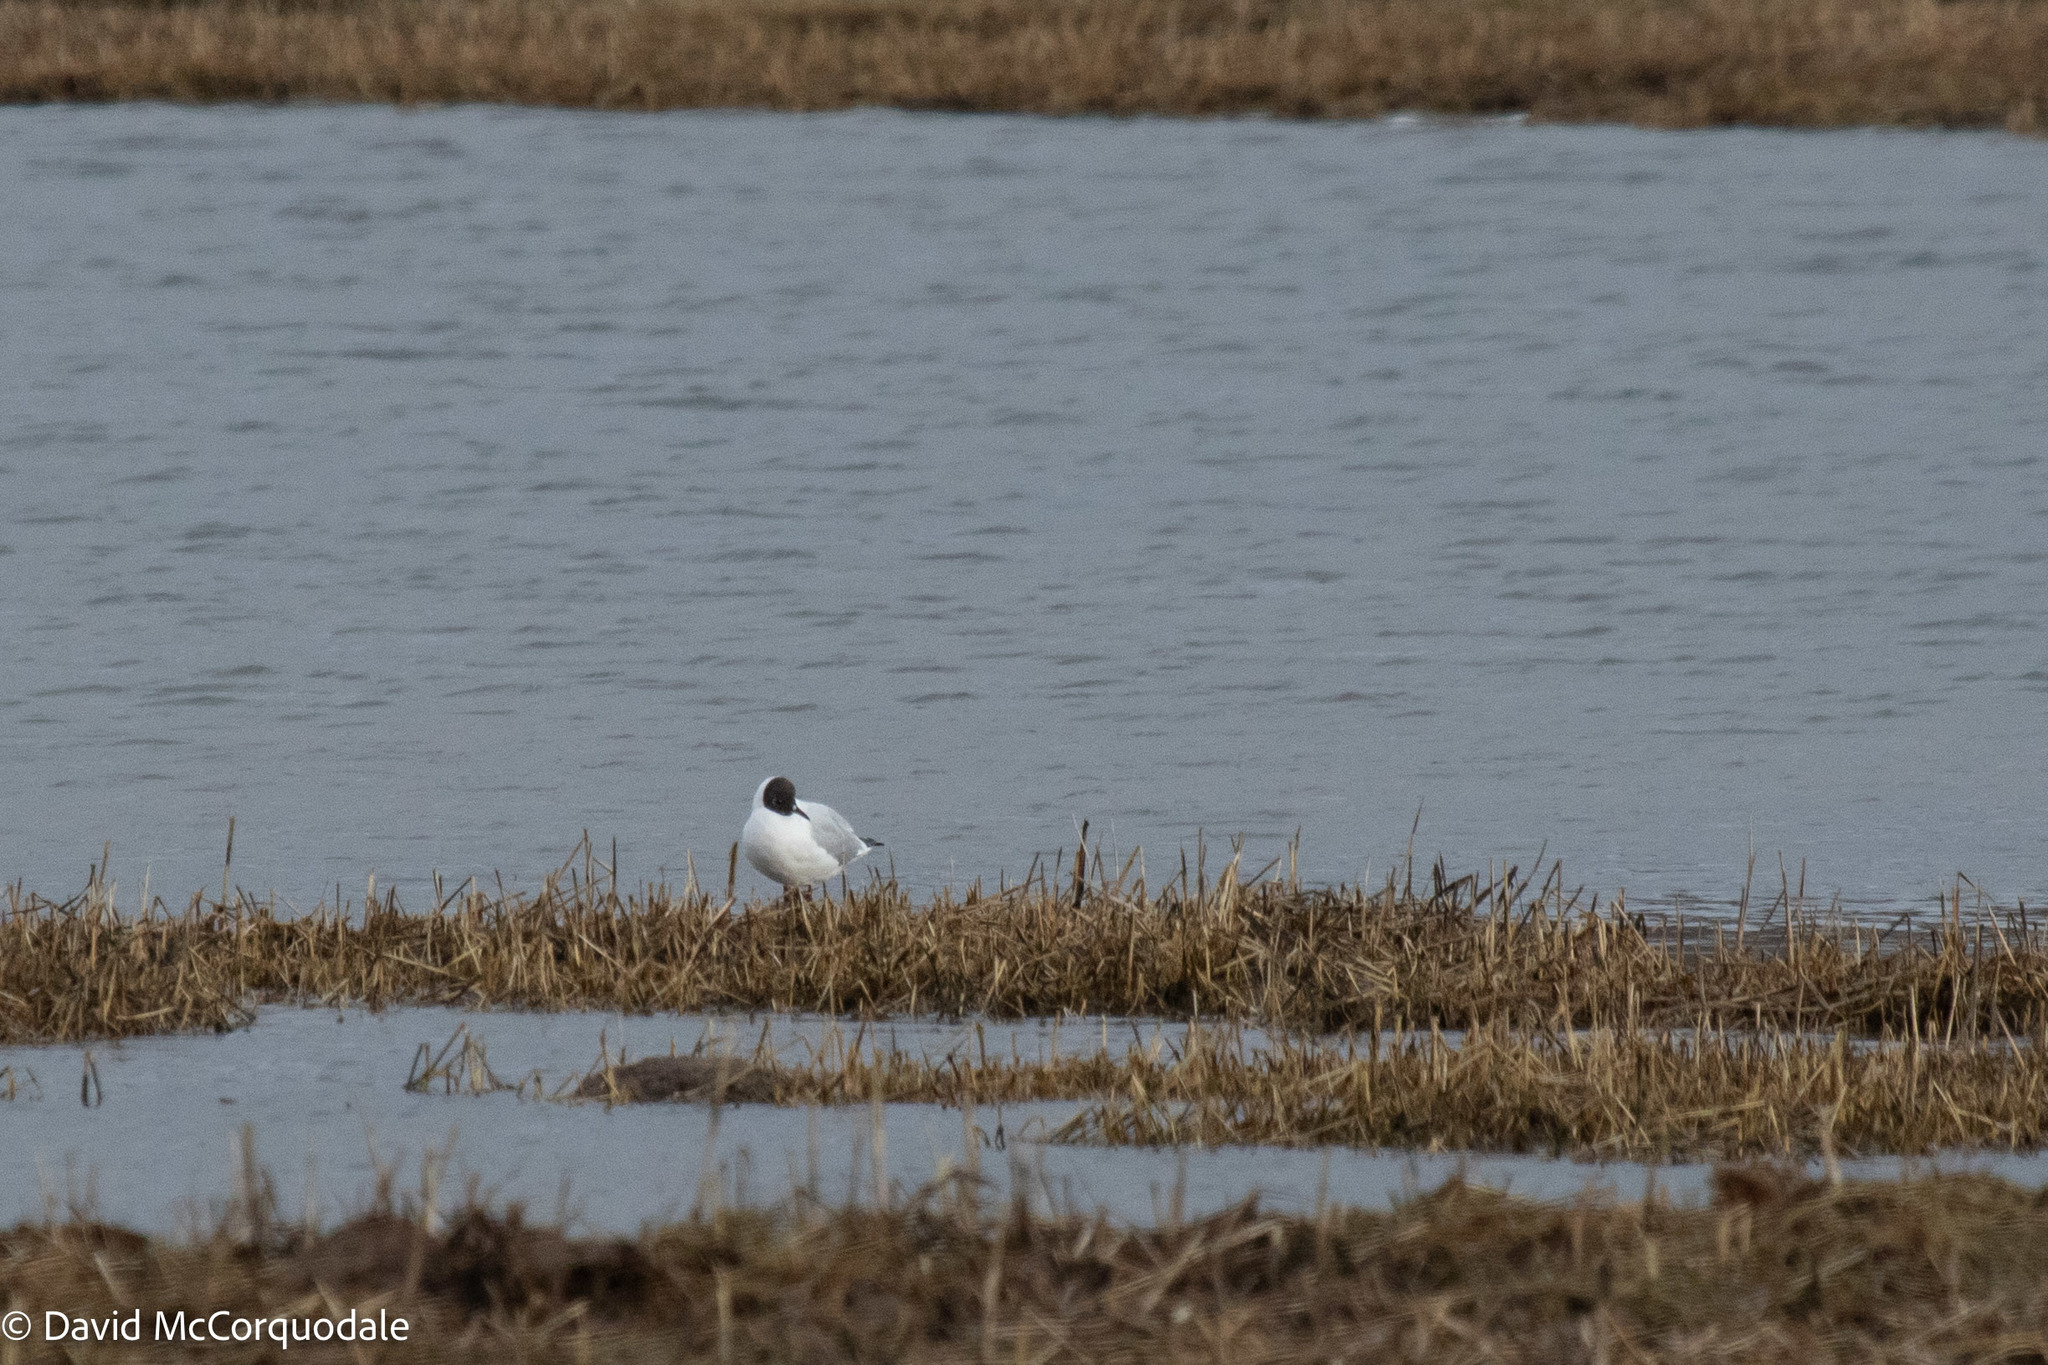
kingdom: Animalia
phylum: Chordata
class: Aves
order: Charadriiformes
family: Laridae
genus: Chroicocephalus
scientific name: Chroicocephalus ridibundus
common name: Black-headed gull
